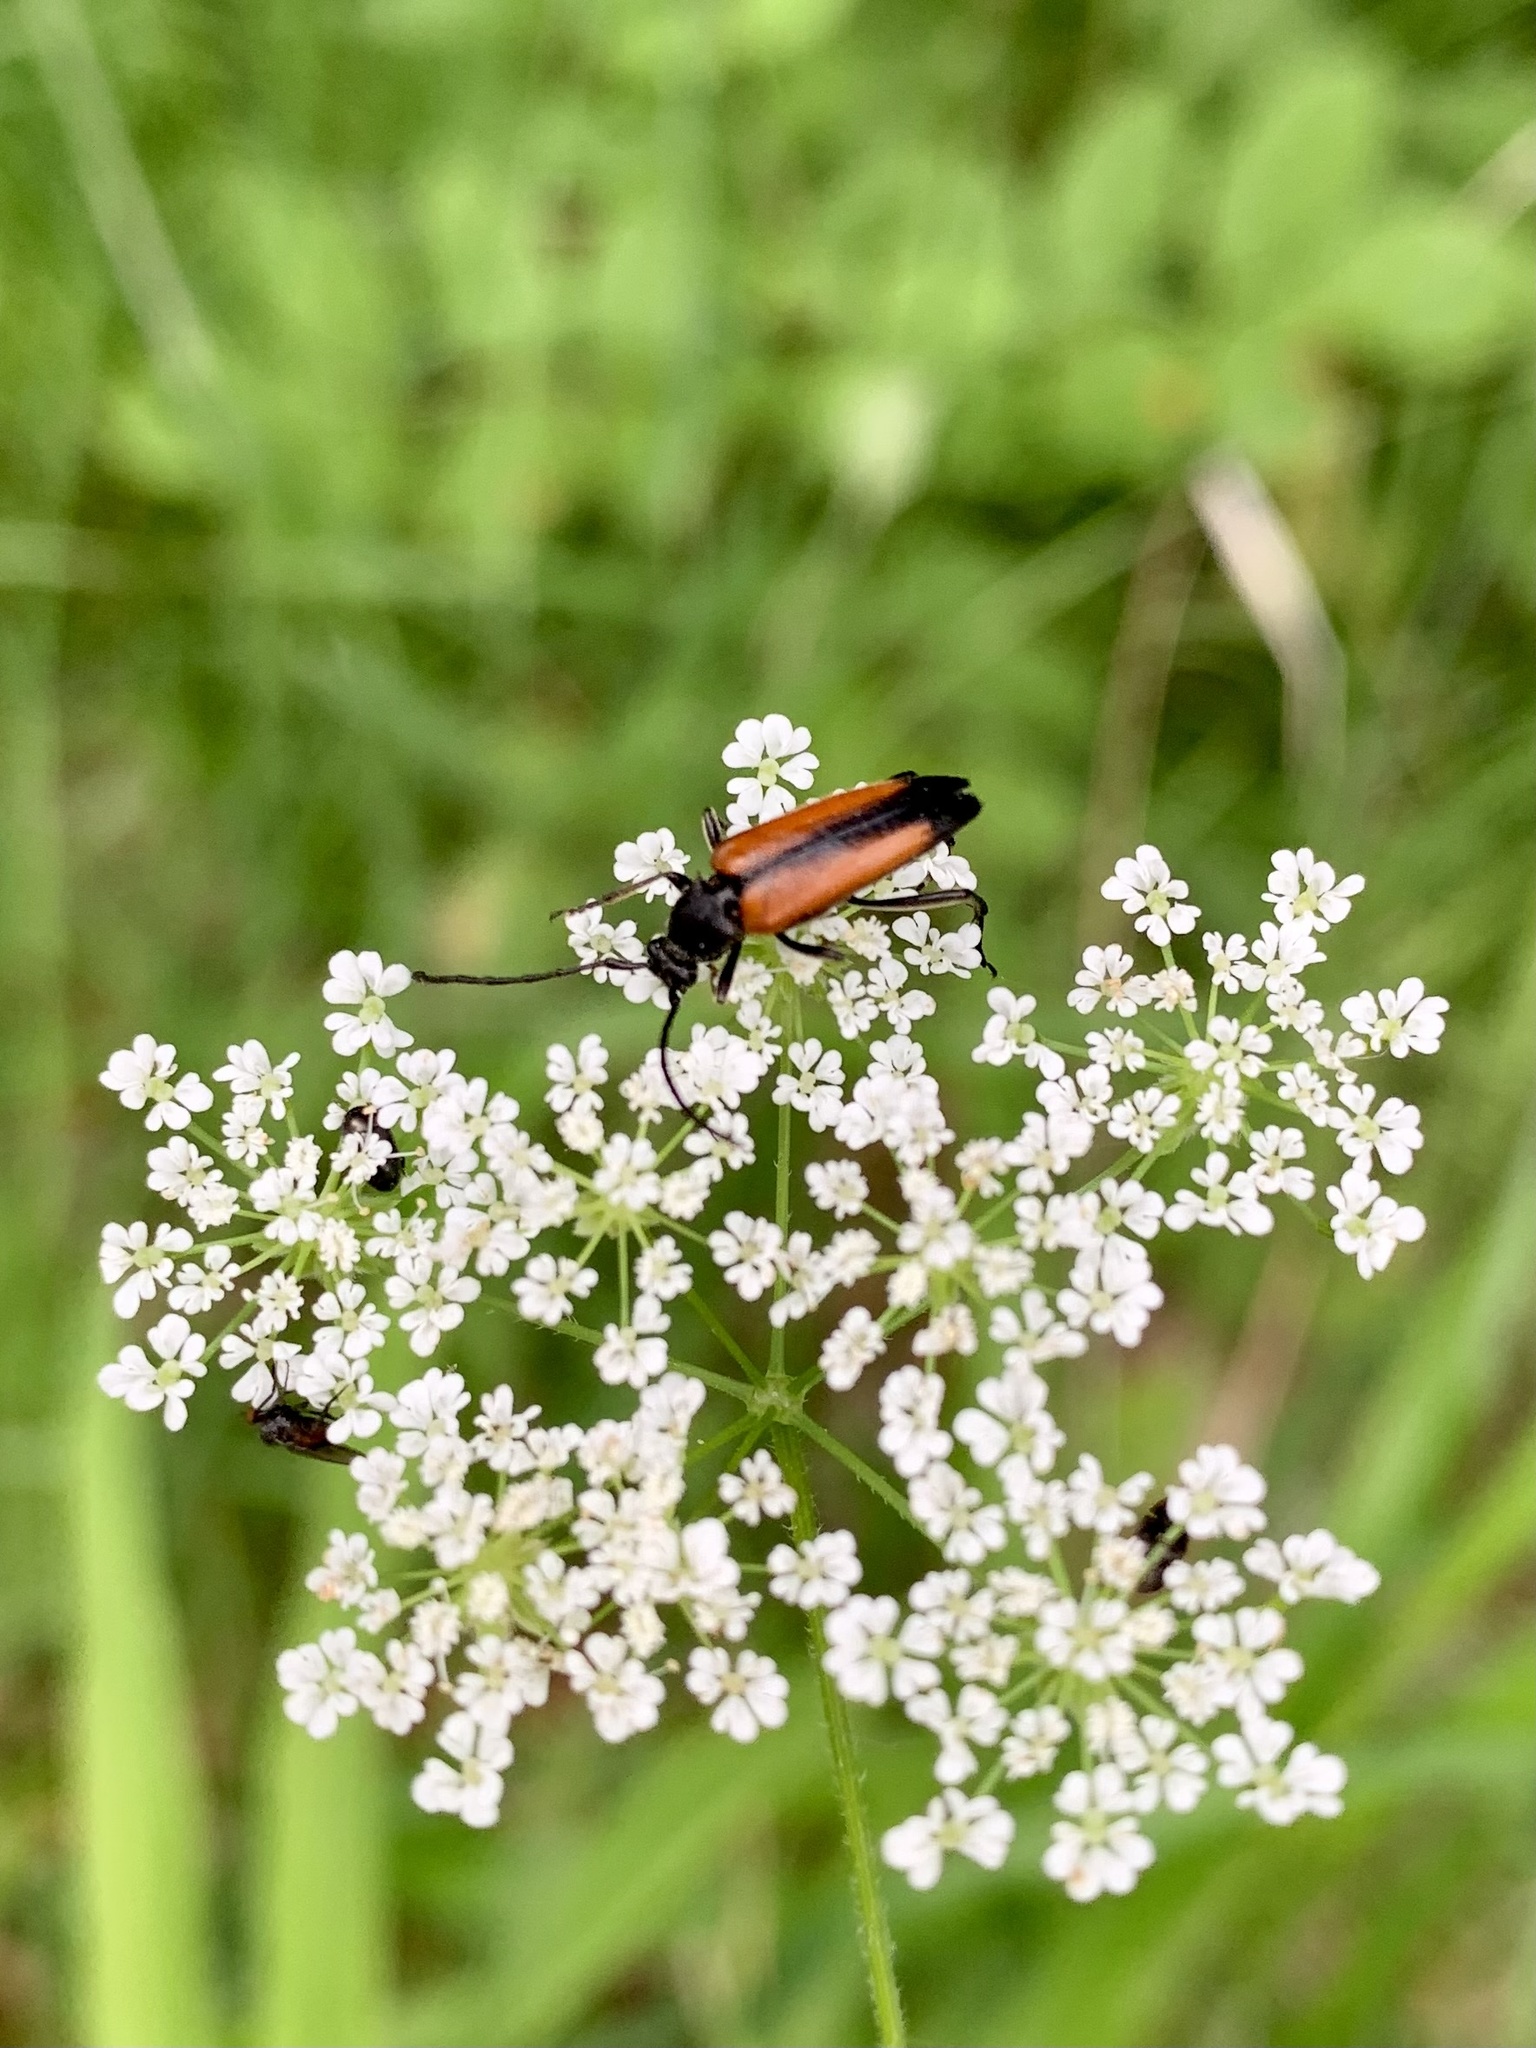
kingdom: Animalia
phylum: Arthropoda
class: Insecta
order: Coleoptera
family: Cerambycidae
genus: Stenurella
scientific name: Stenurella melanura
